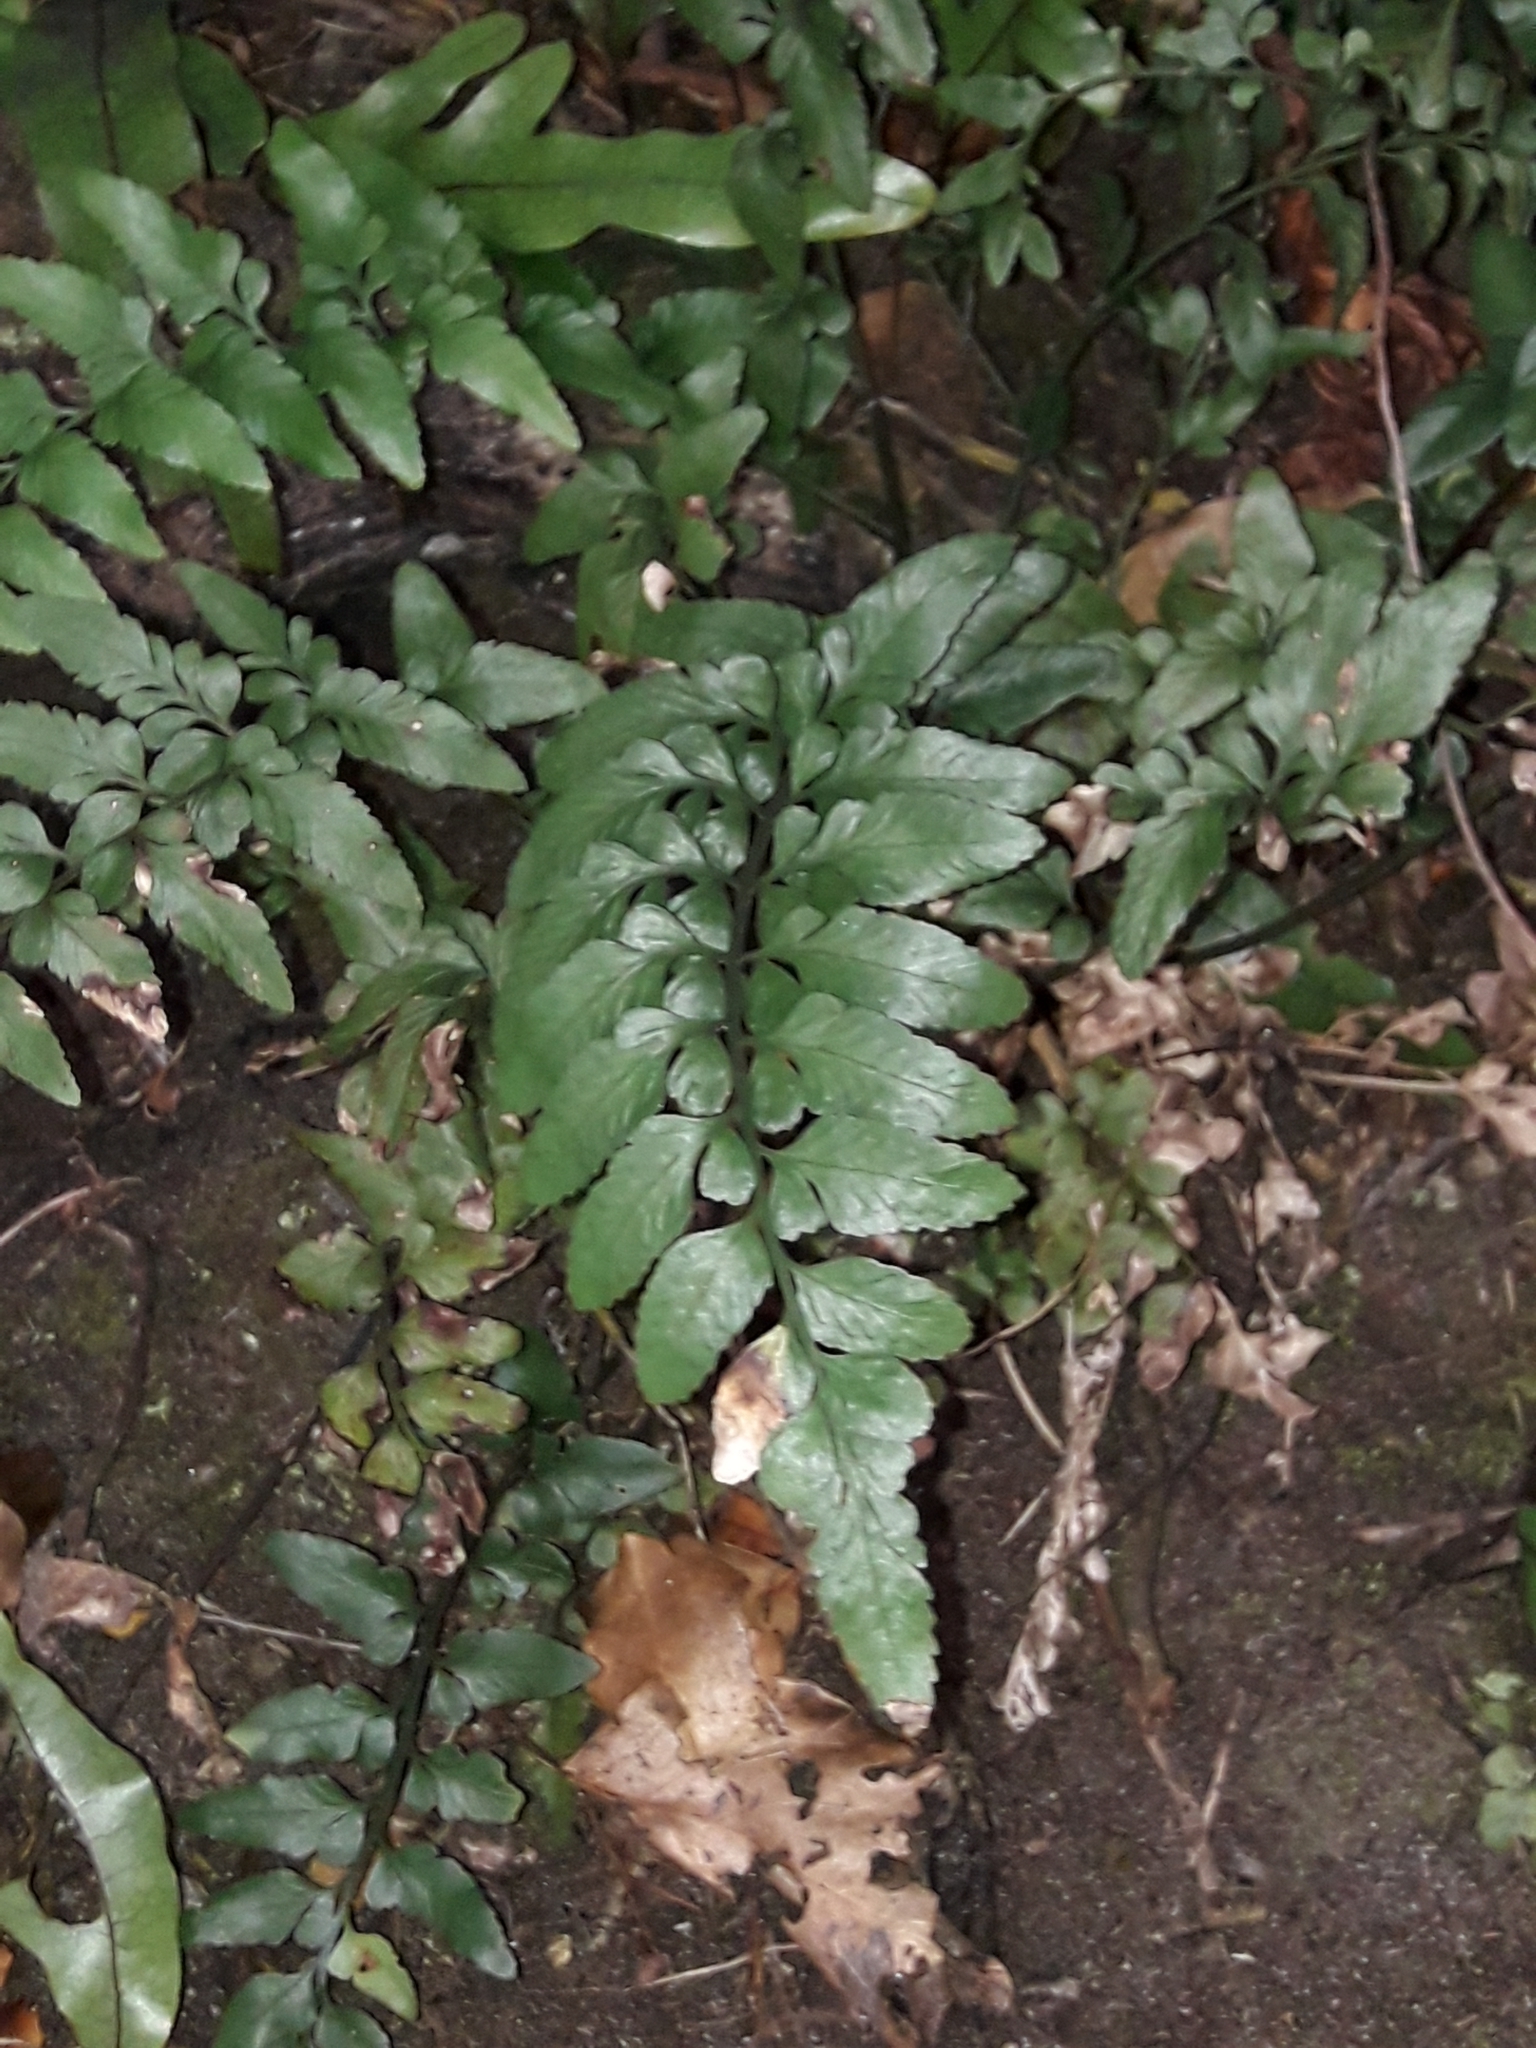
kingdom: Plantae
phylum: Tracheophyta
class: Polypodiopsida
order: Polypodiales
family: Aspleniaceae
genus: Asplenium
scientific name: Asplenium lyallii
